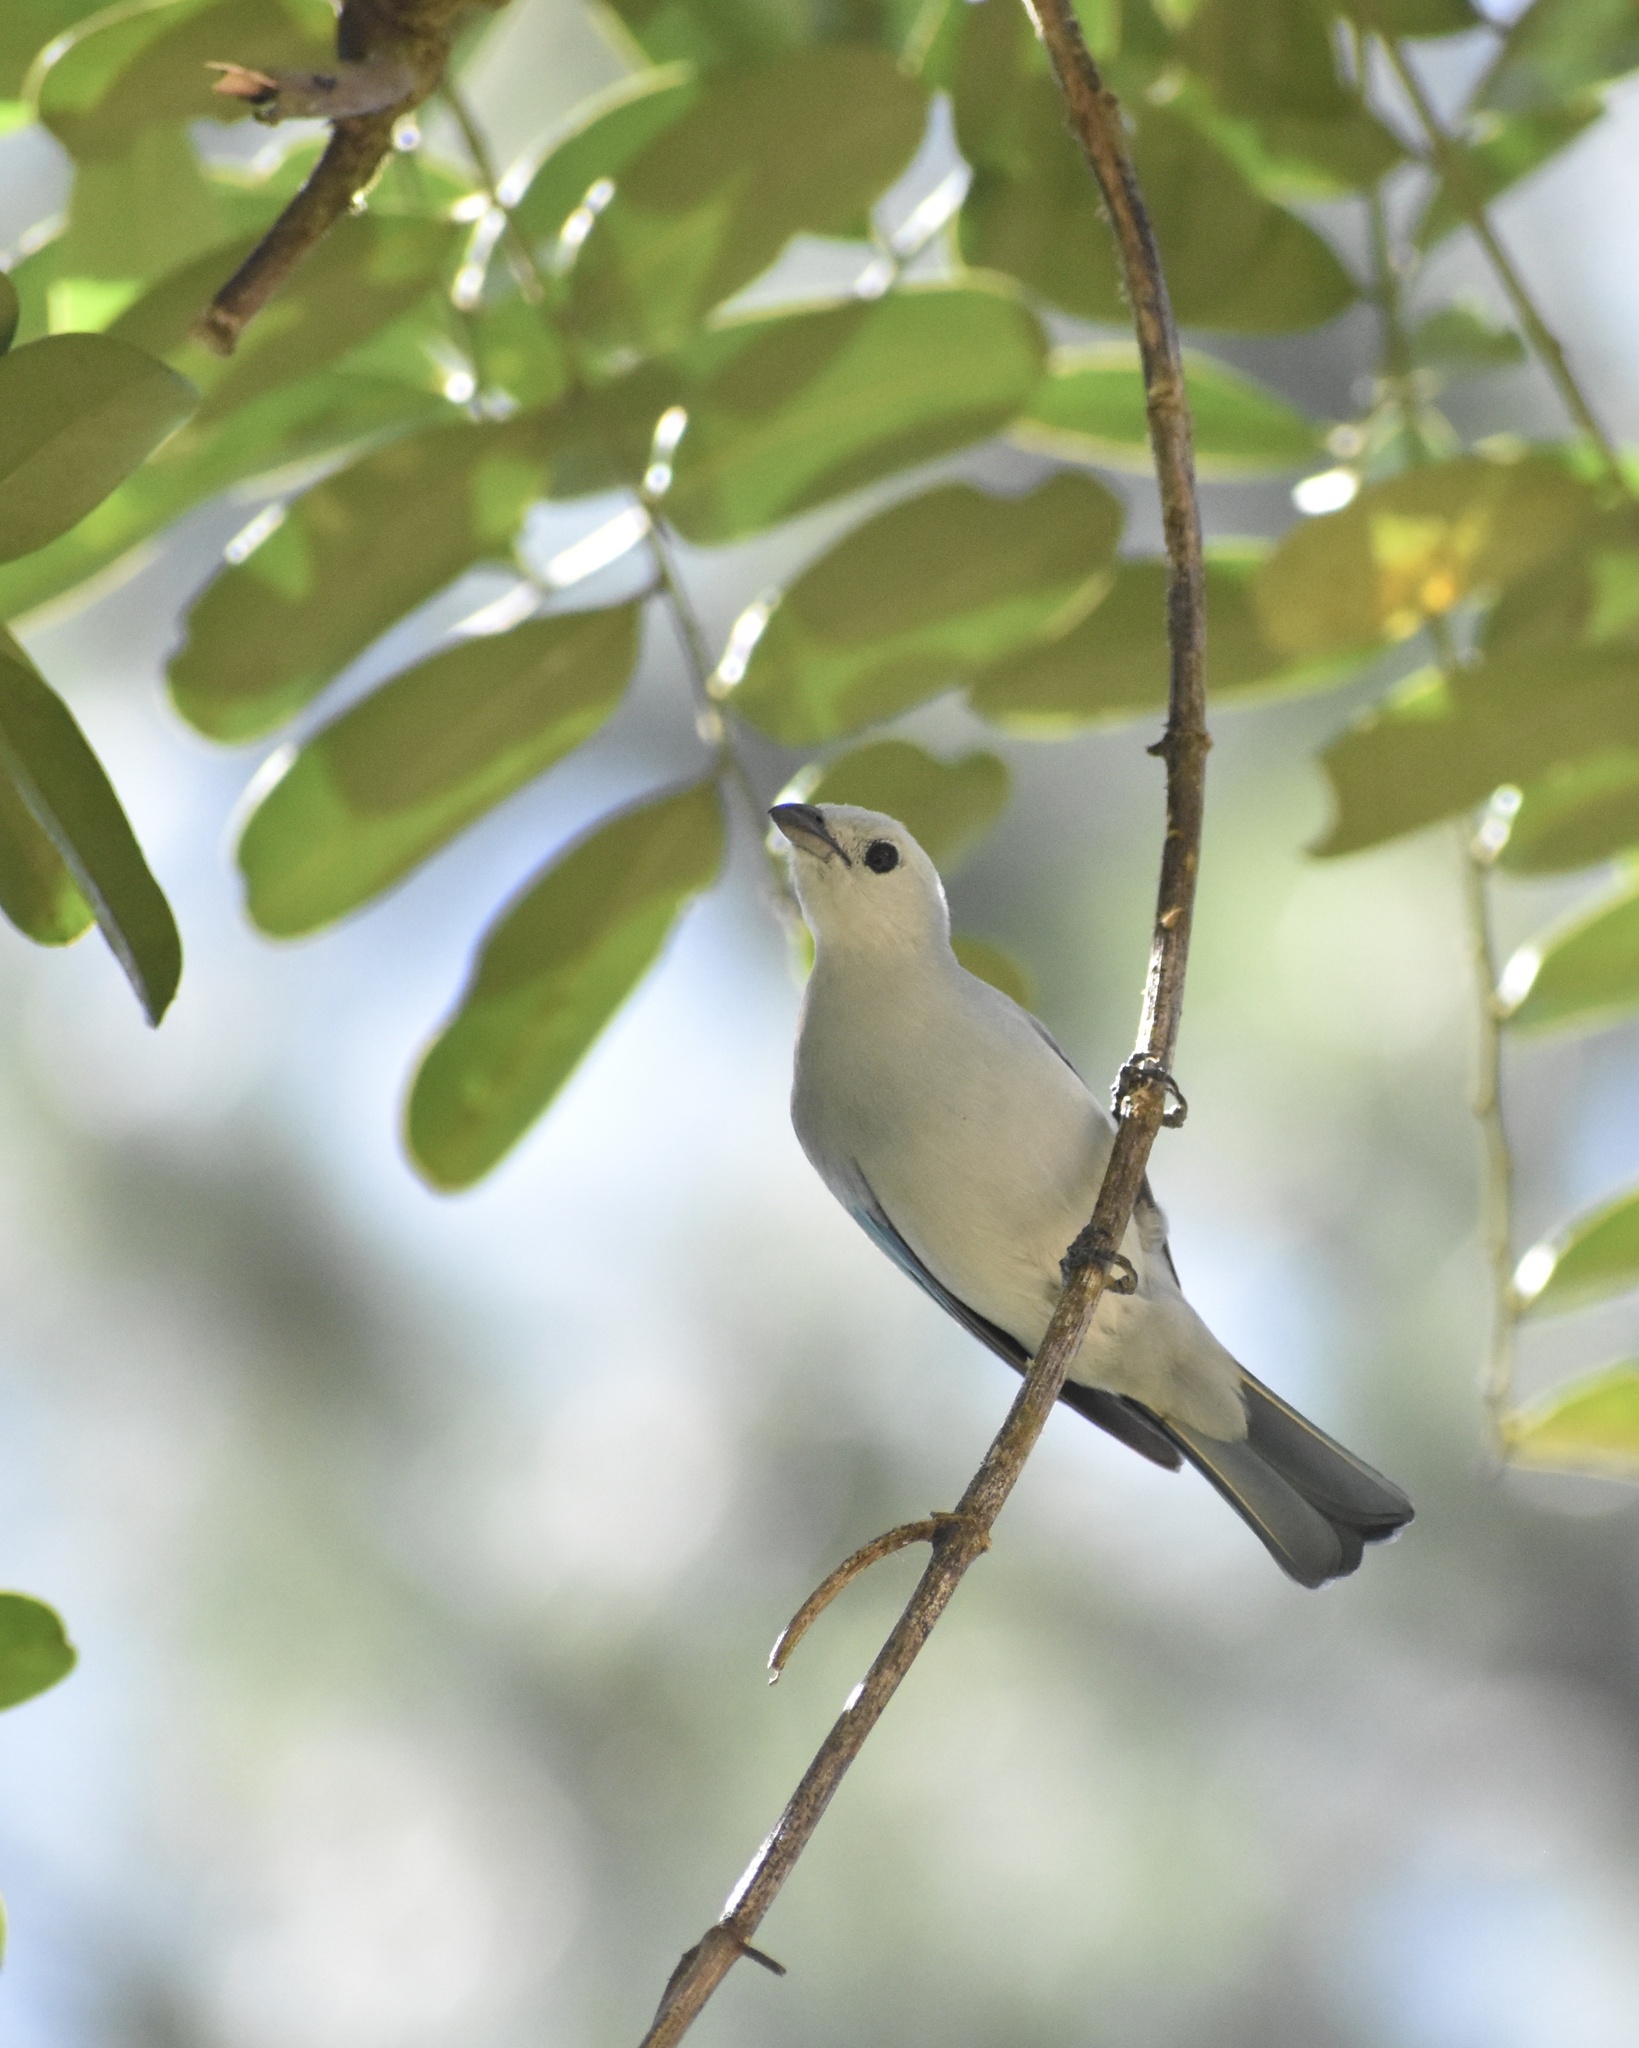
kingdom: Animalia
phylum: Chordata
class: Aves
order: Passeriformes
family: Thraupidae
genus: Thraupis
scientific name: Thraupis episcopus
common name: Blue-grey tanager
